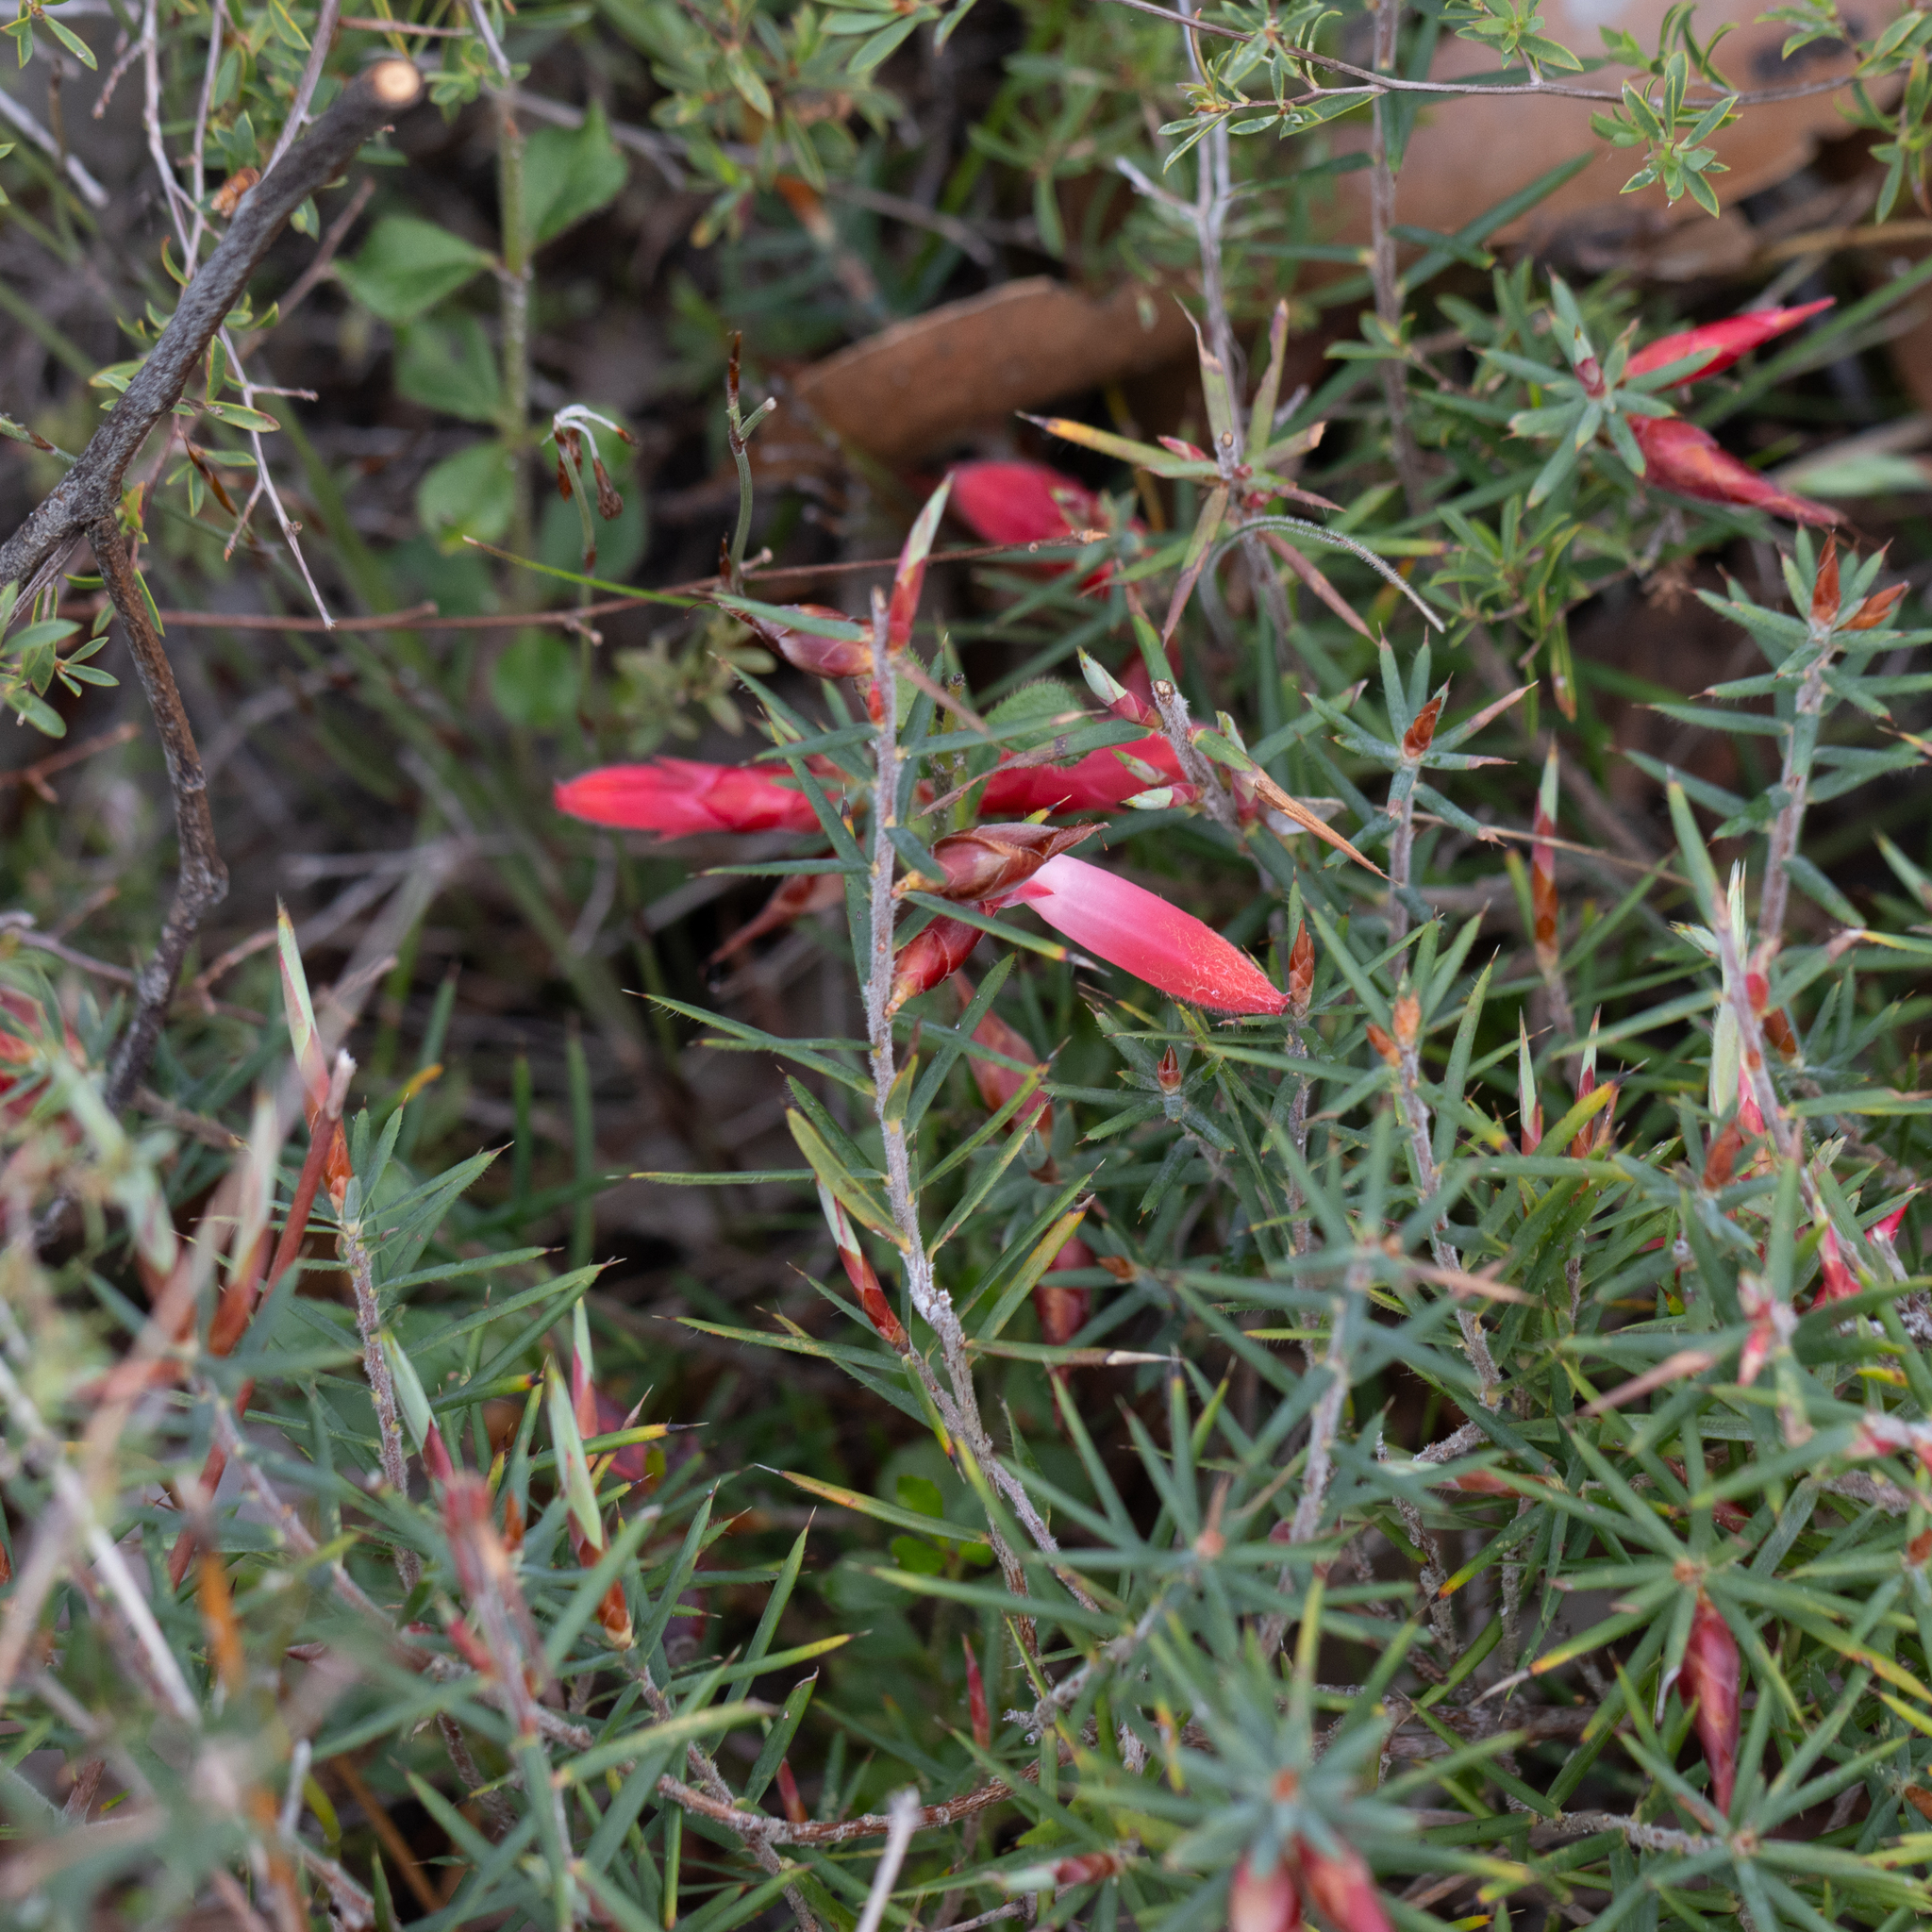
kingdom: Plantae
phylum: Tracheophyta
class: Magnoliopsida
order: Ericales
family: Ericaceae
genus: Stenanthera
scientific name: Stenanthera conostephioides
